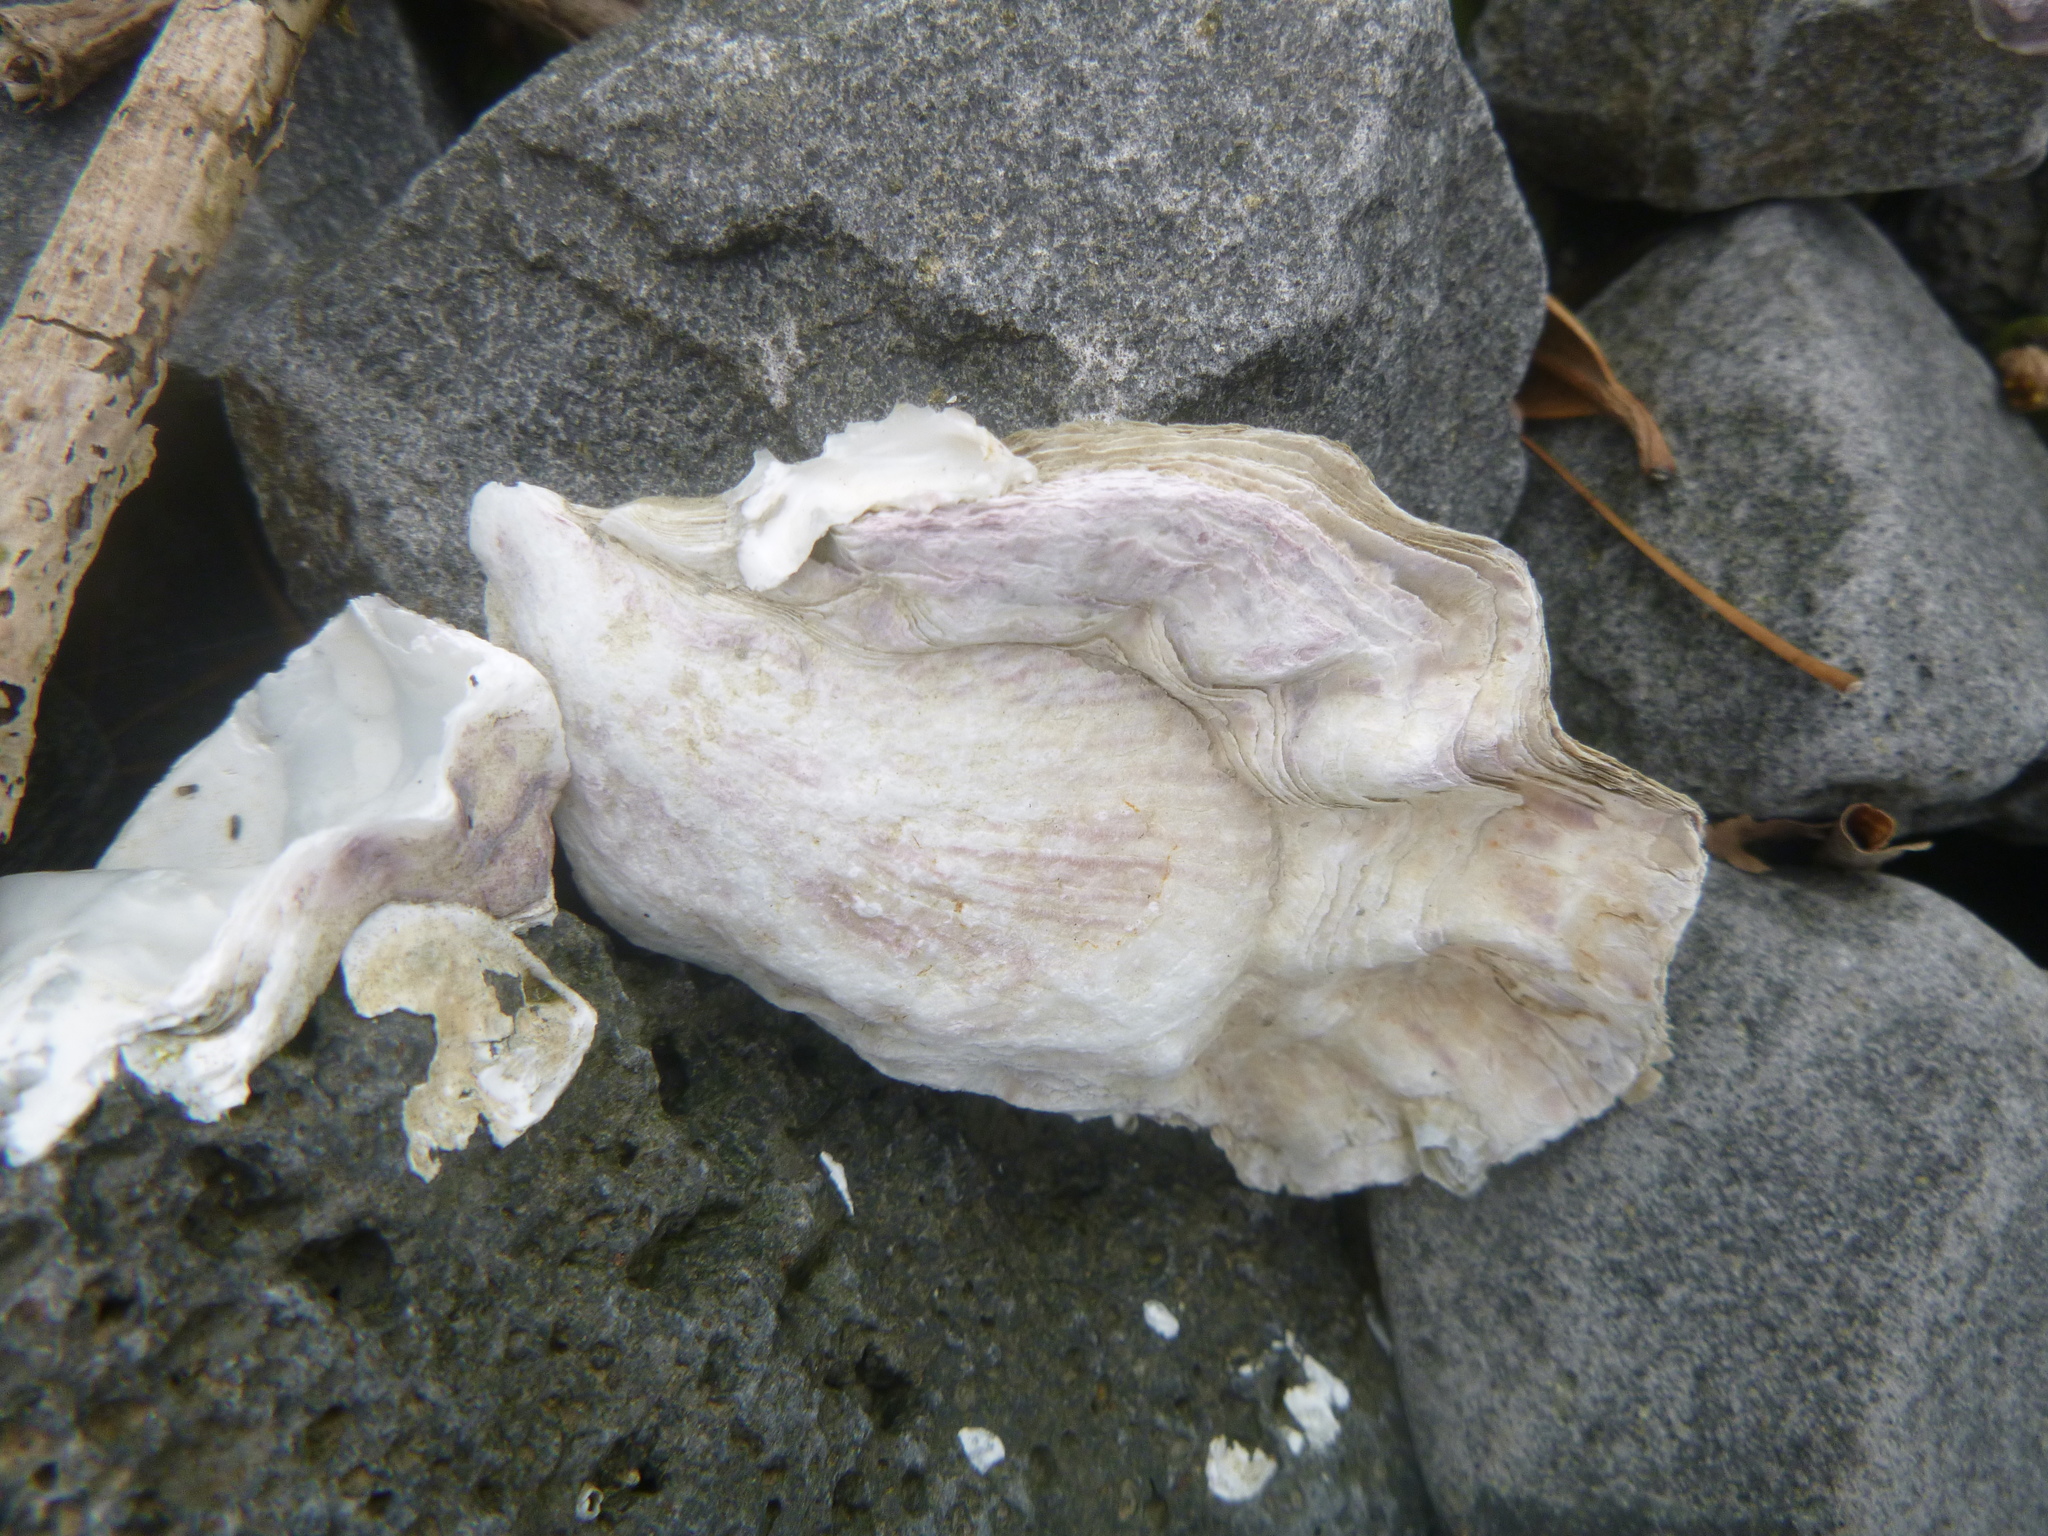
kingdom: Animalia
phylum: Mollusca
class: Bivalvia
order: Ostreida
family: Ostreidae
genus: Magallana
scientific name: Magallana gigas
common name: Pacific oyster
